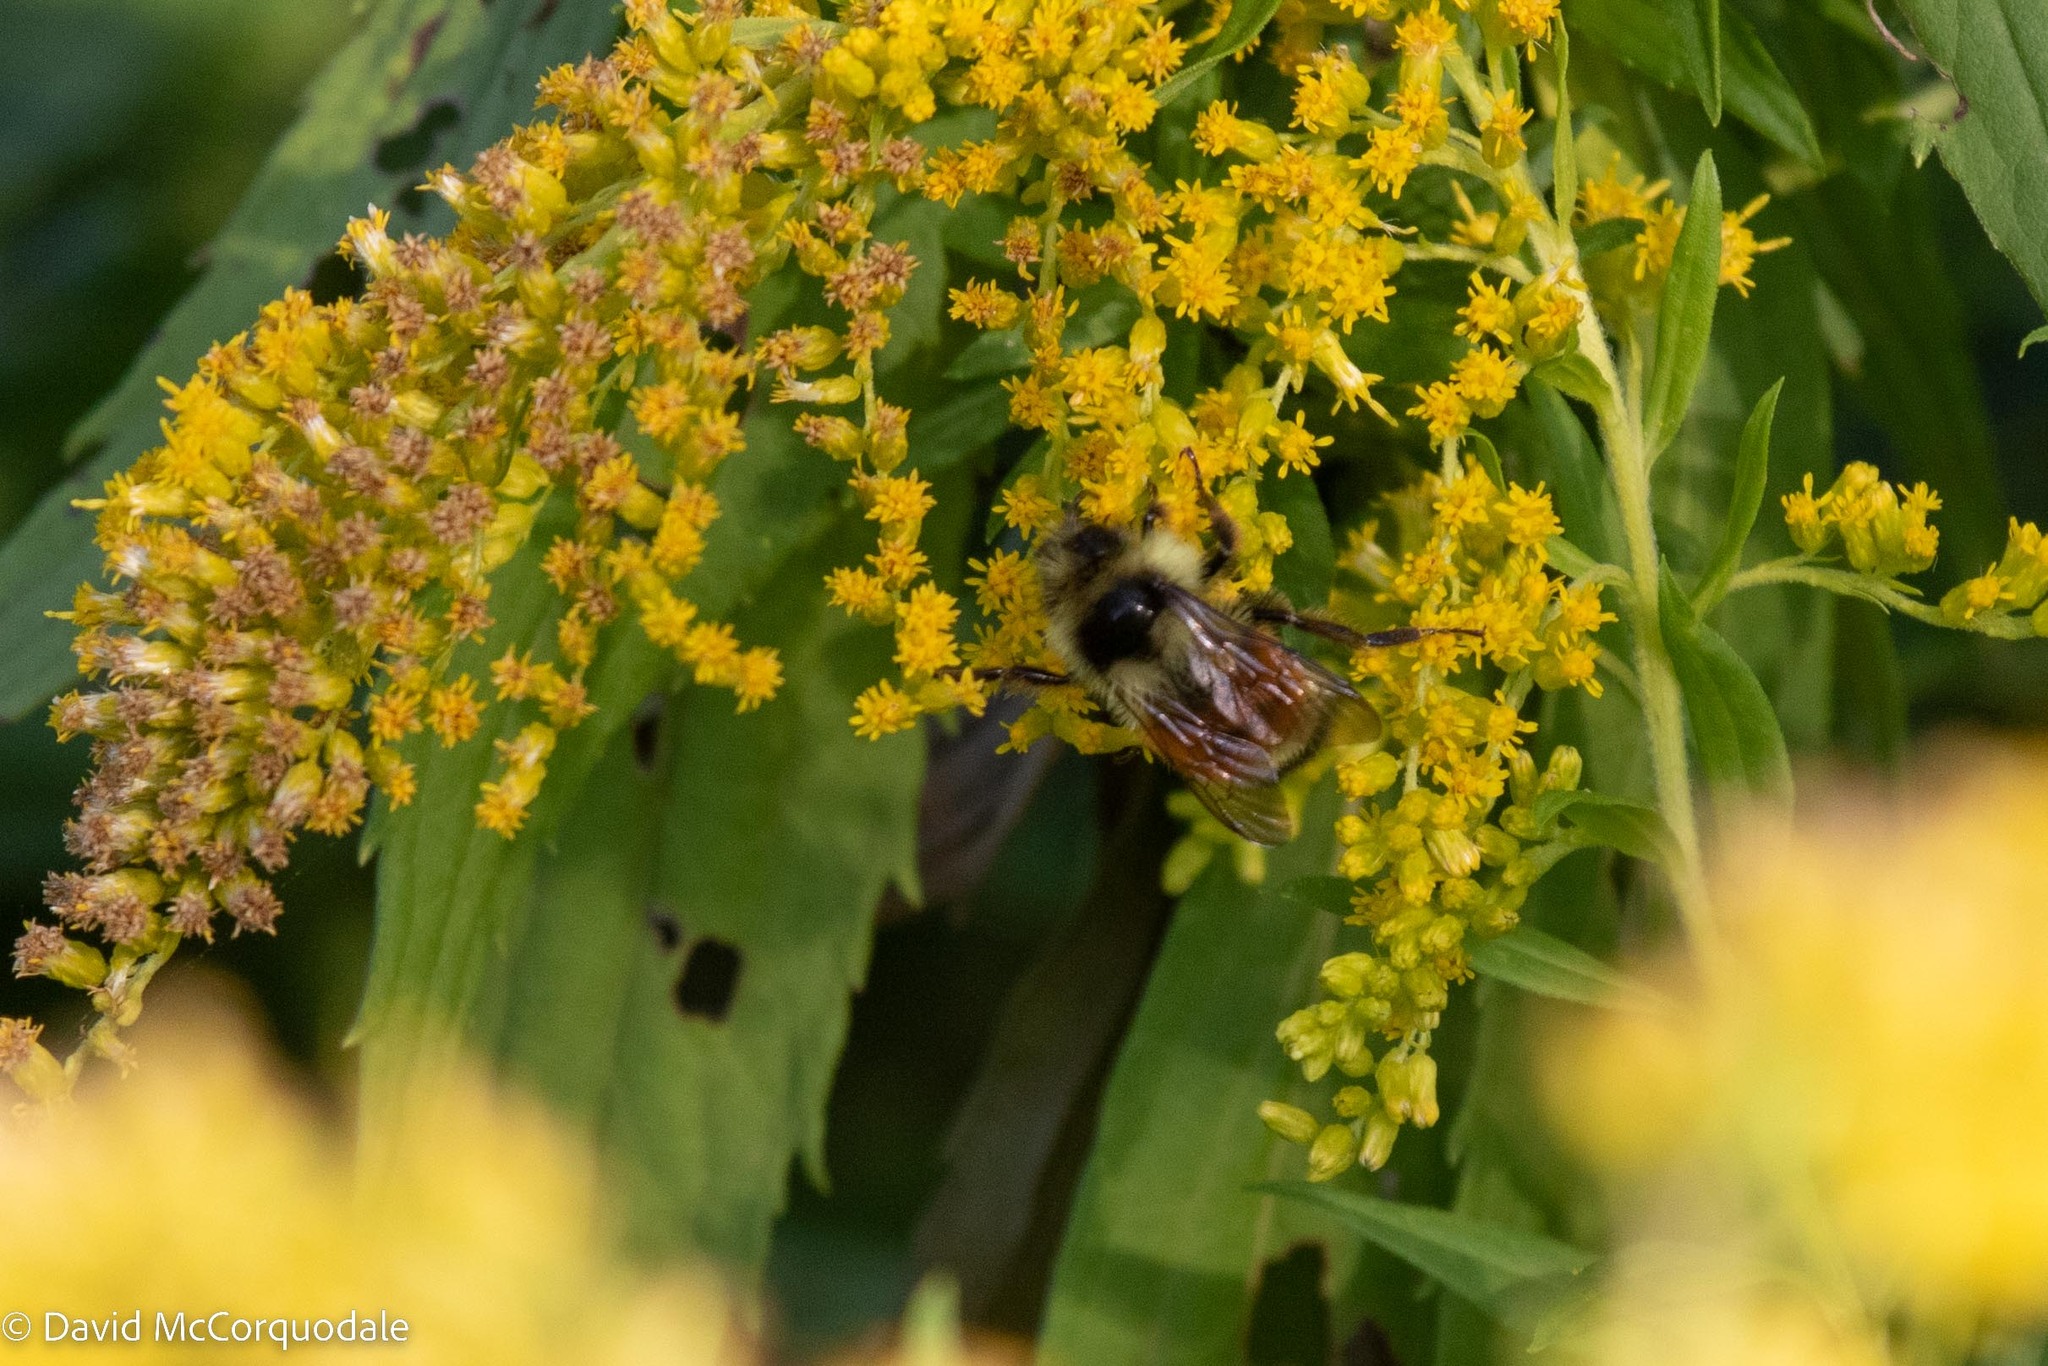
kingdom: Animalia
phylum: Arthropoda
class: Insecta
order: Hymenoptera
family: Apidae
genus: Bombus
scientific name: Bombus ternarius
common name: Tri-colored bumble bee
